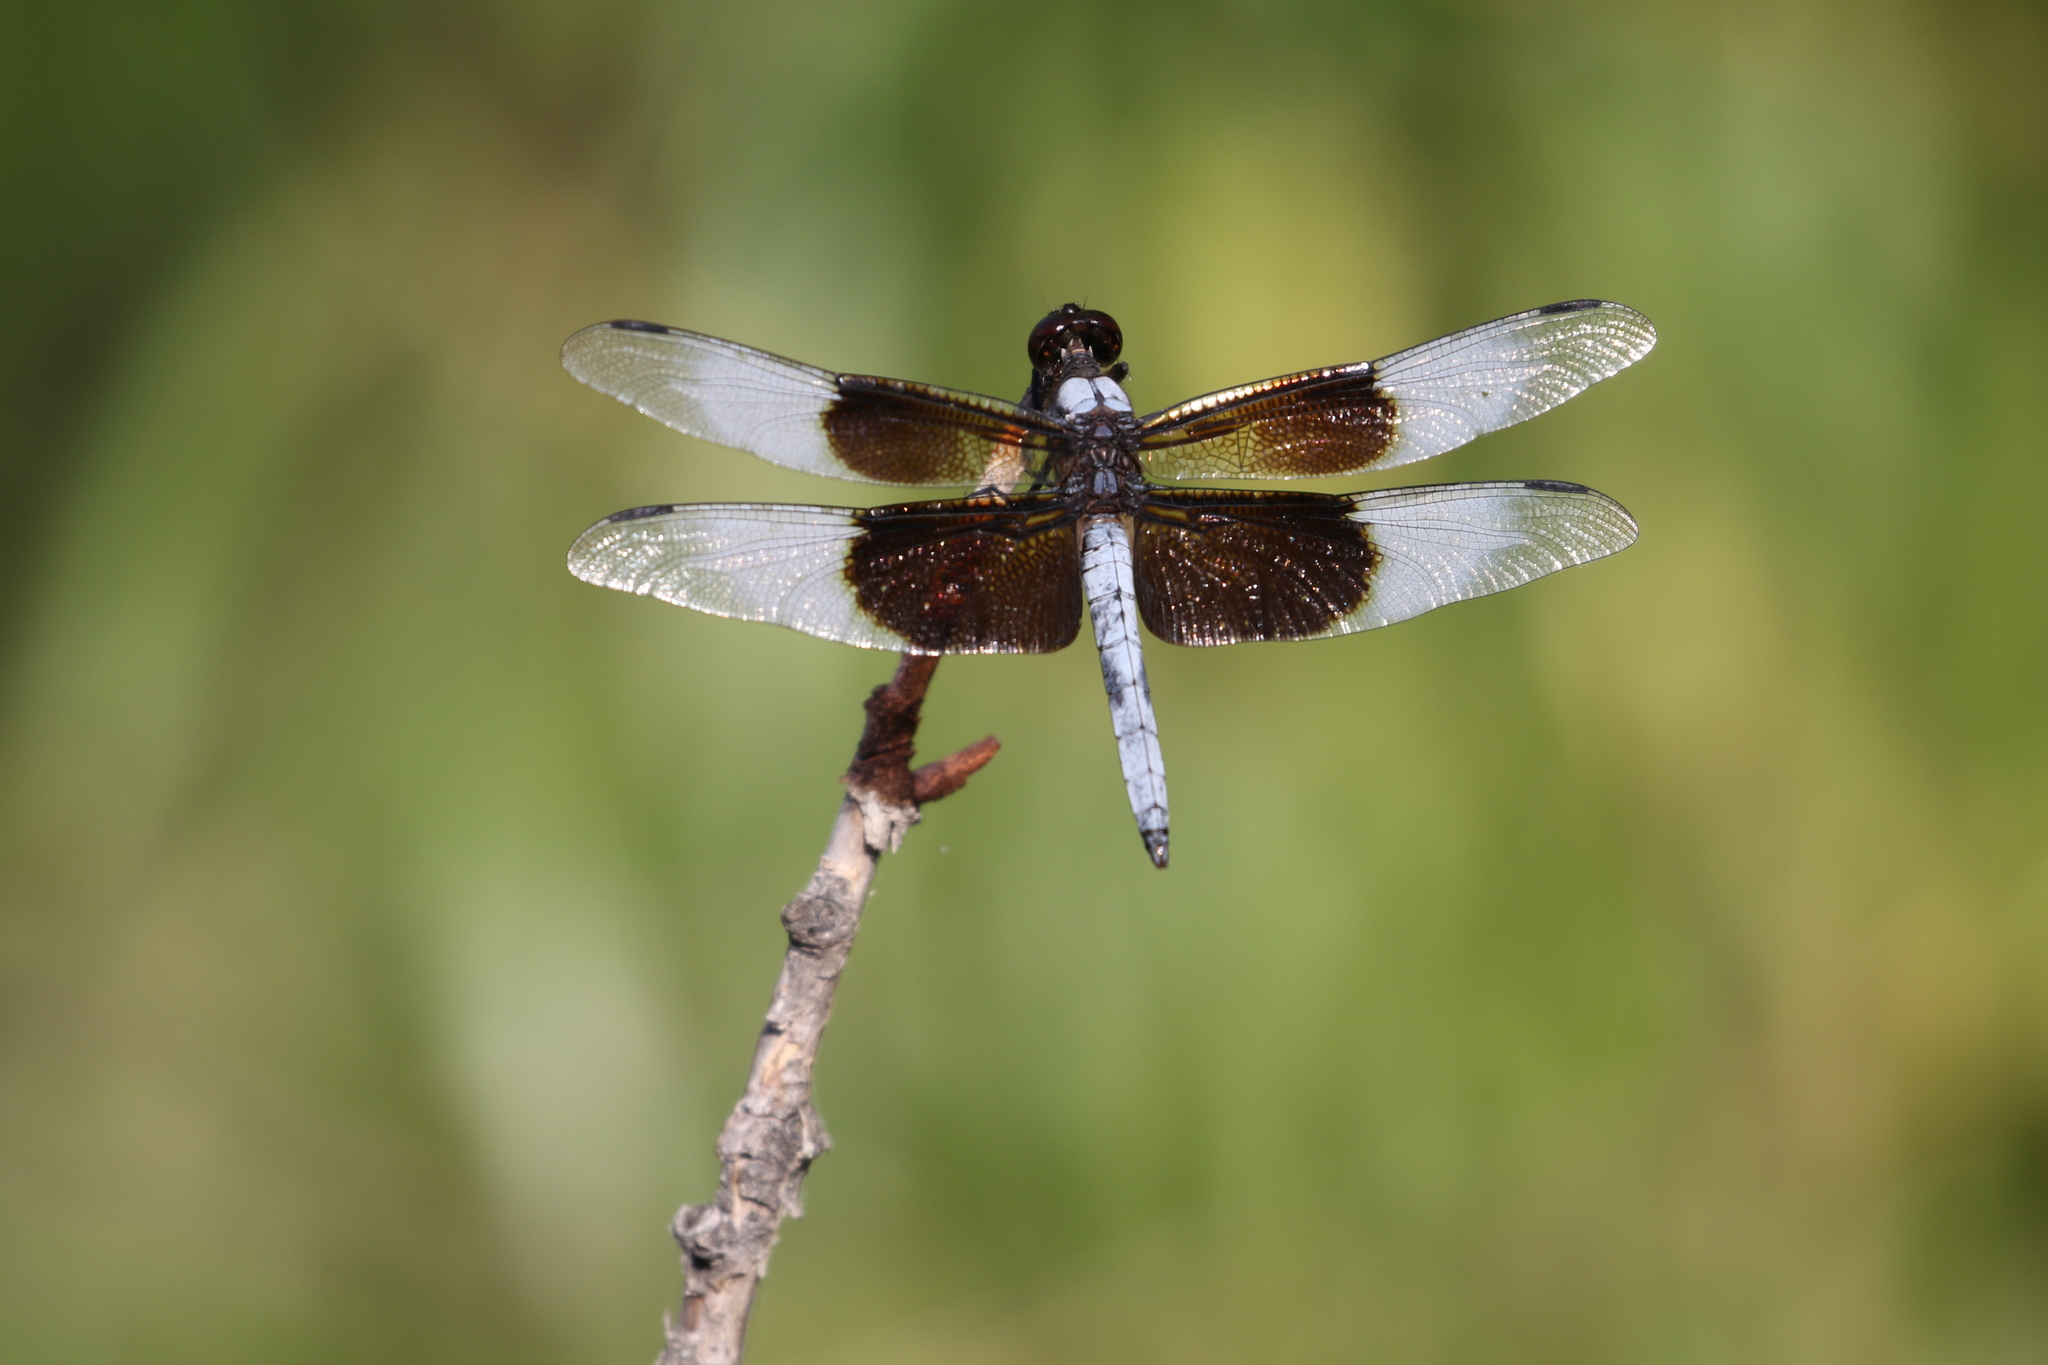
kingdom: Animalia
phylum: Arthropoda
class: Insecta
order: Odonata
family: Libellulidae
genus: Libellula
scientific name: Libellula luctuosa
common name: Widow skimmer
